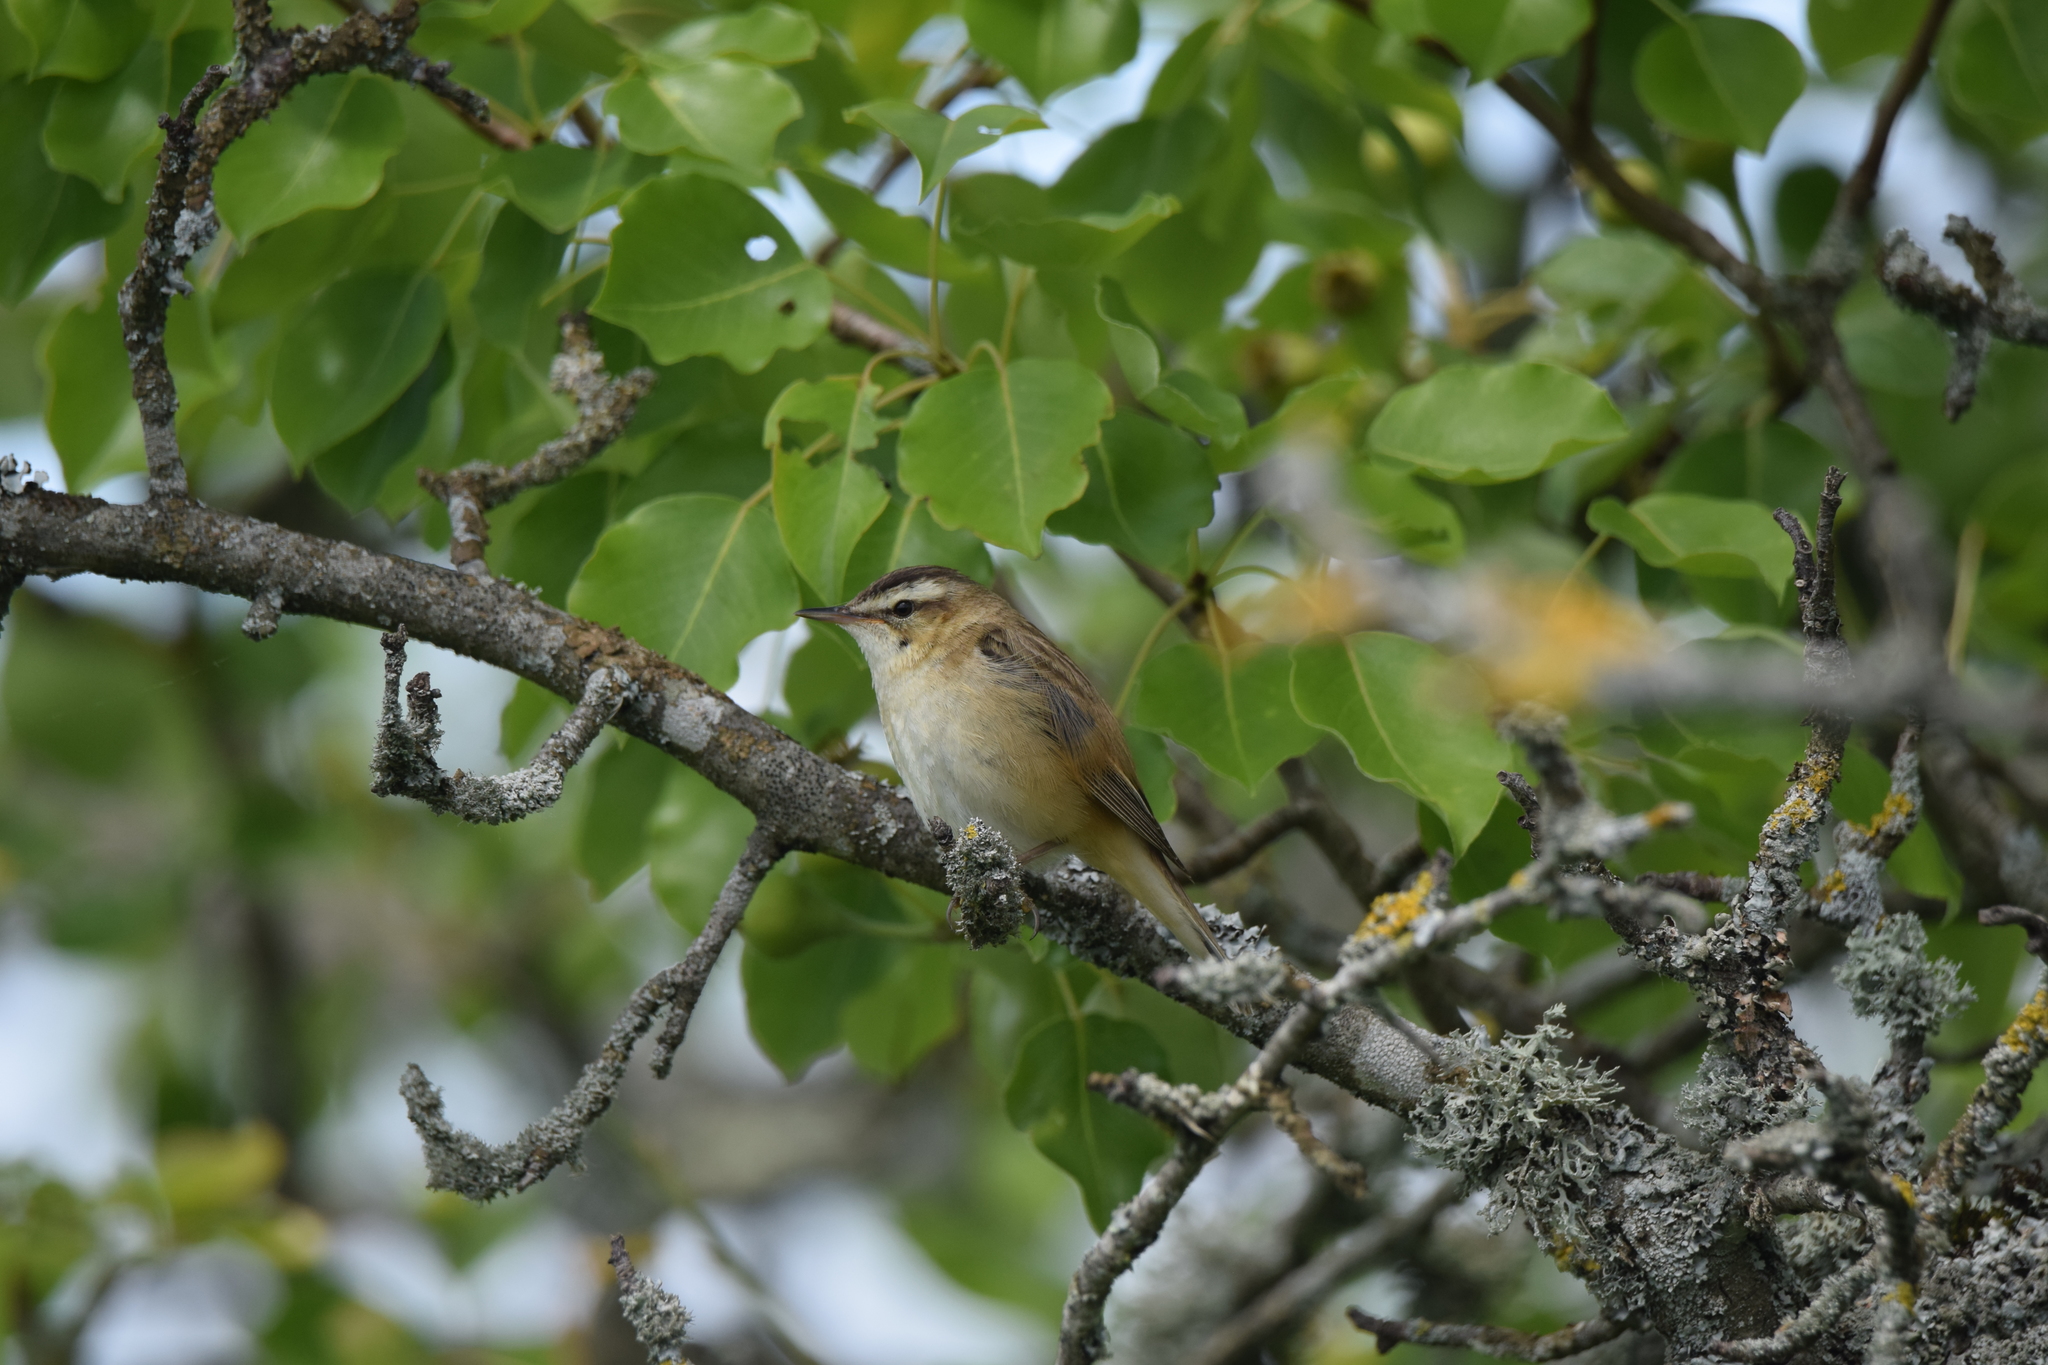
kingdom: Animalia
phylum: Chordata
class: Aves
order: Passeriformes
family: Acrocephalidae
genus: Acrocephalus
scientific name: Acrocephalus schoenobaenus
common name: Sedge warbler
